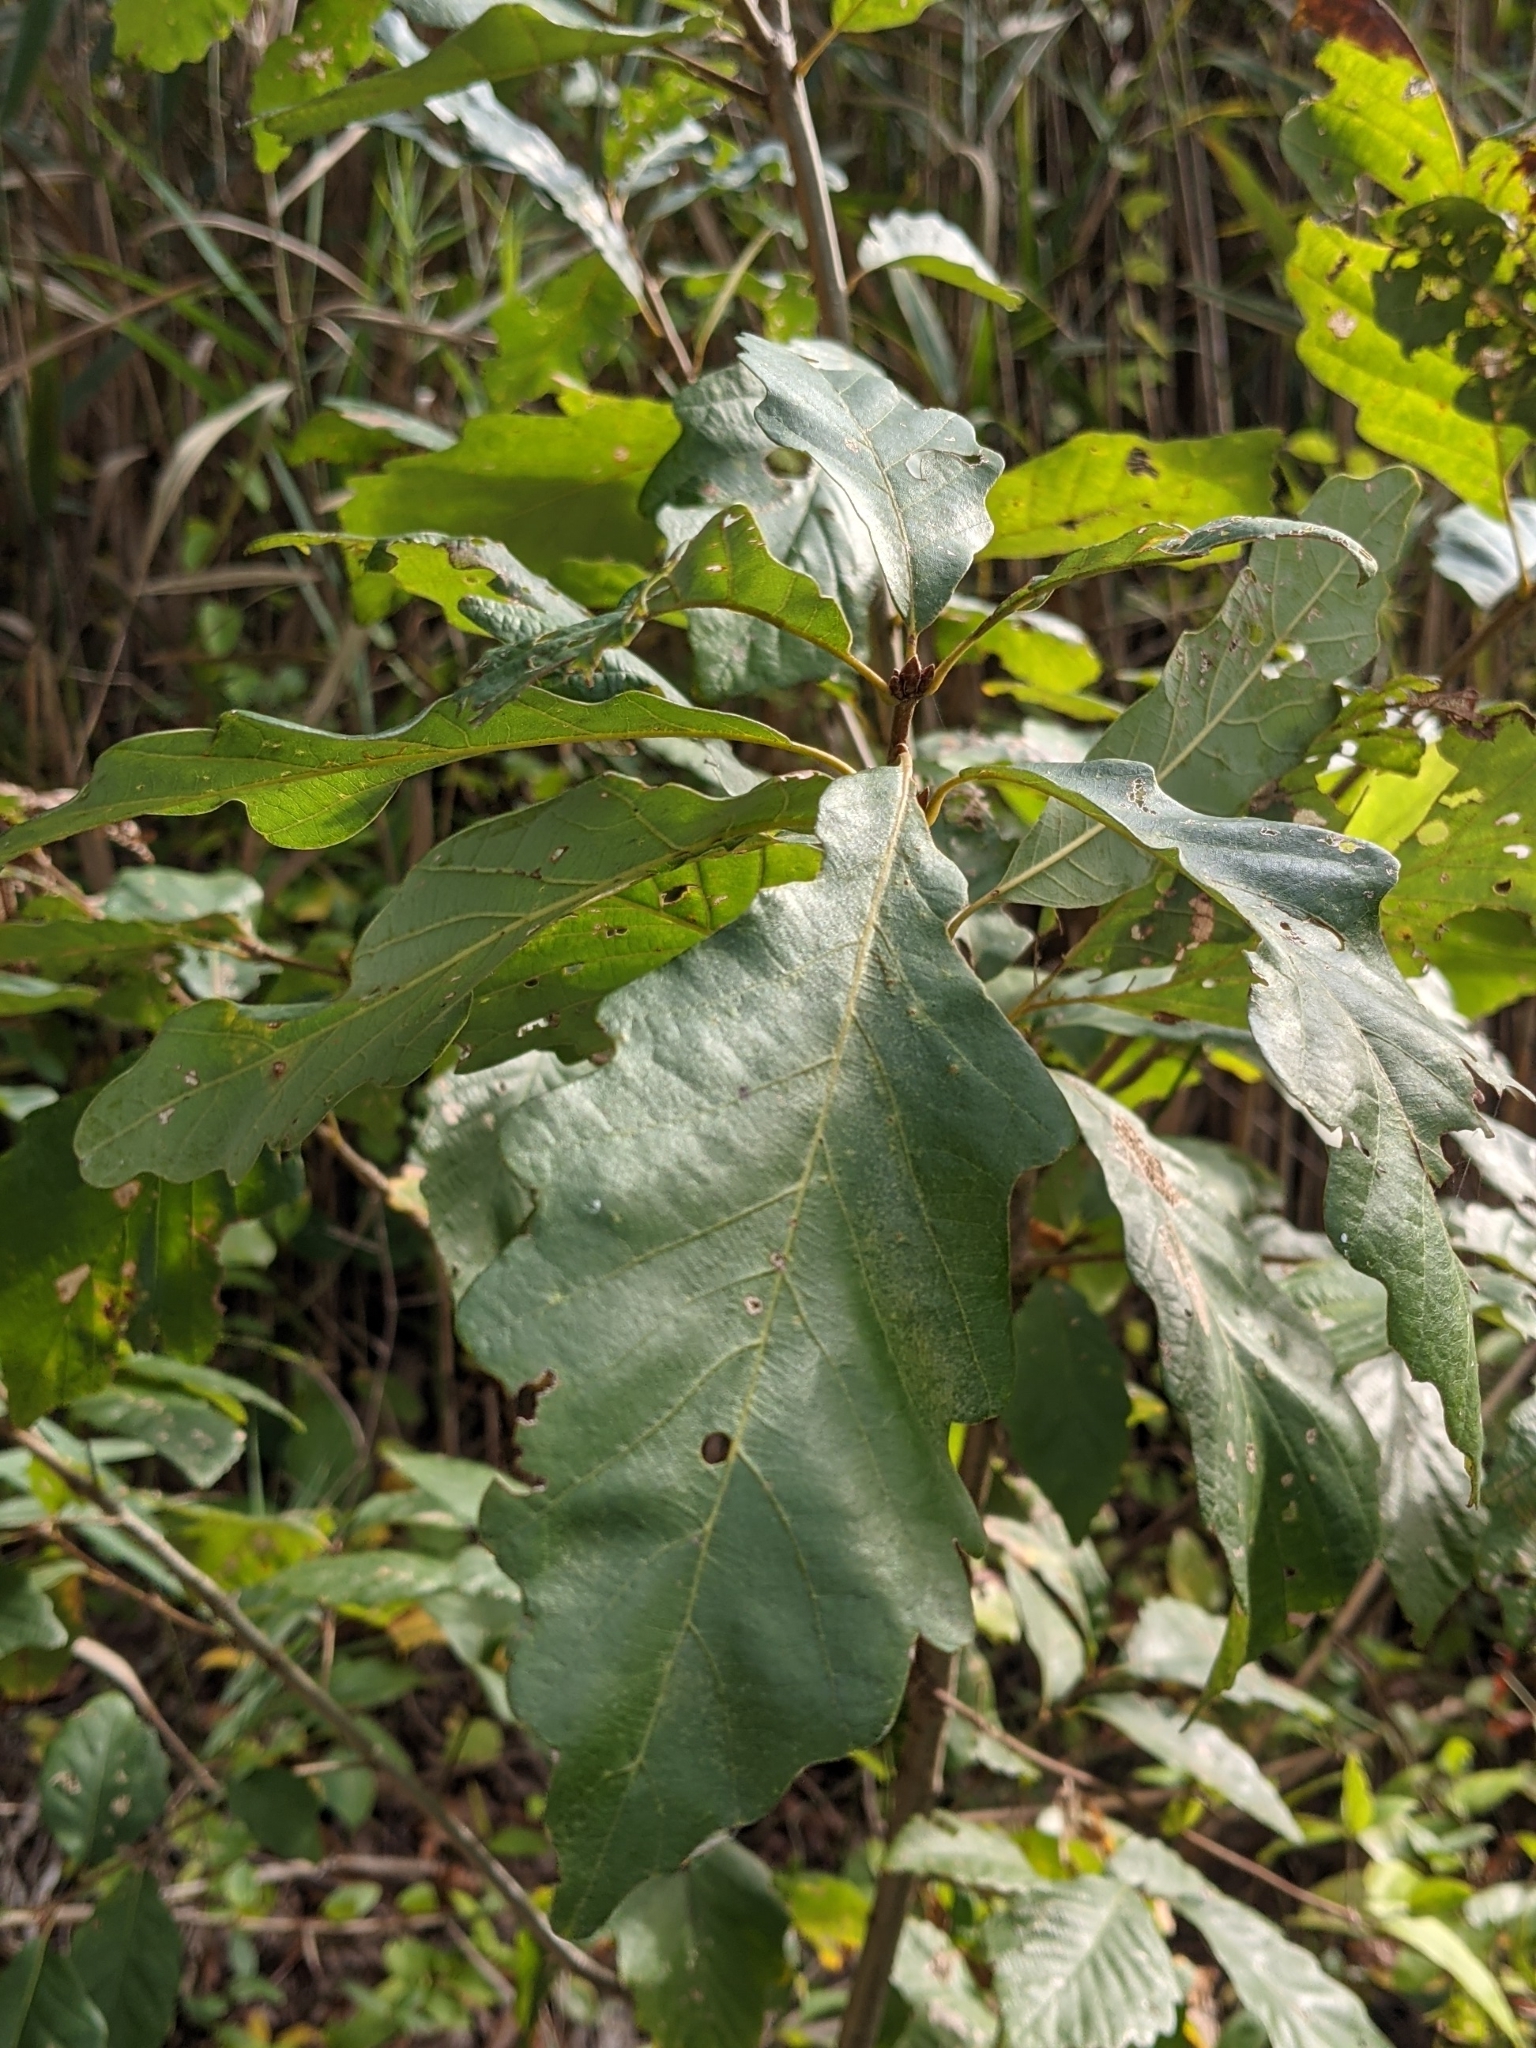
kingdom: Plantae
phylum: Tracheophyta
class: Magnoliopsida
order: Fagales
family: Fagaceae
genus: Quercus
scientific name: Quercus montana
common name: Chestnut oak
